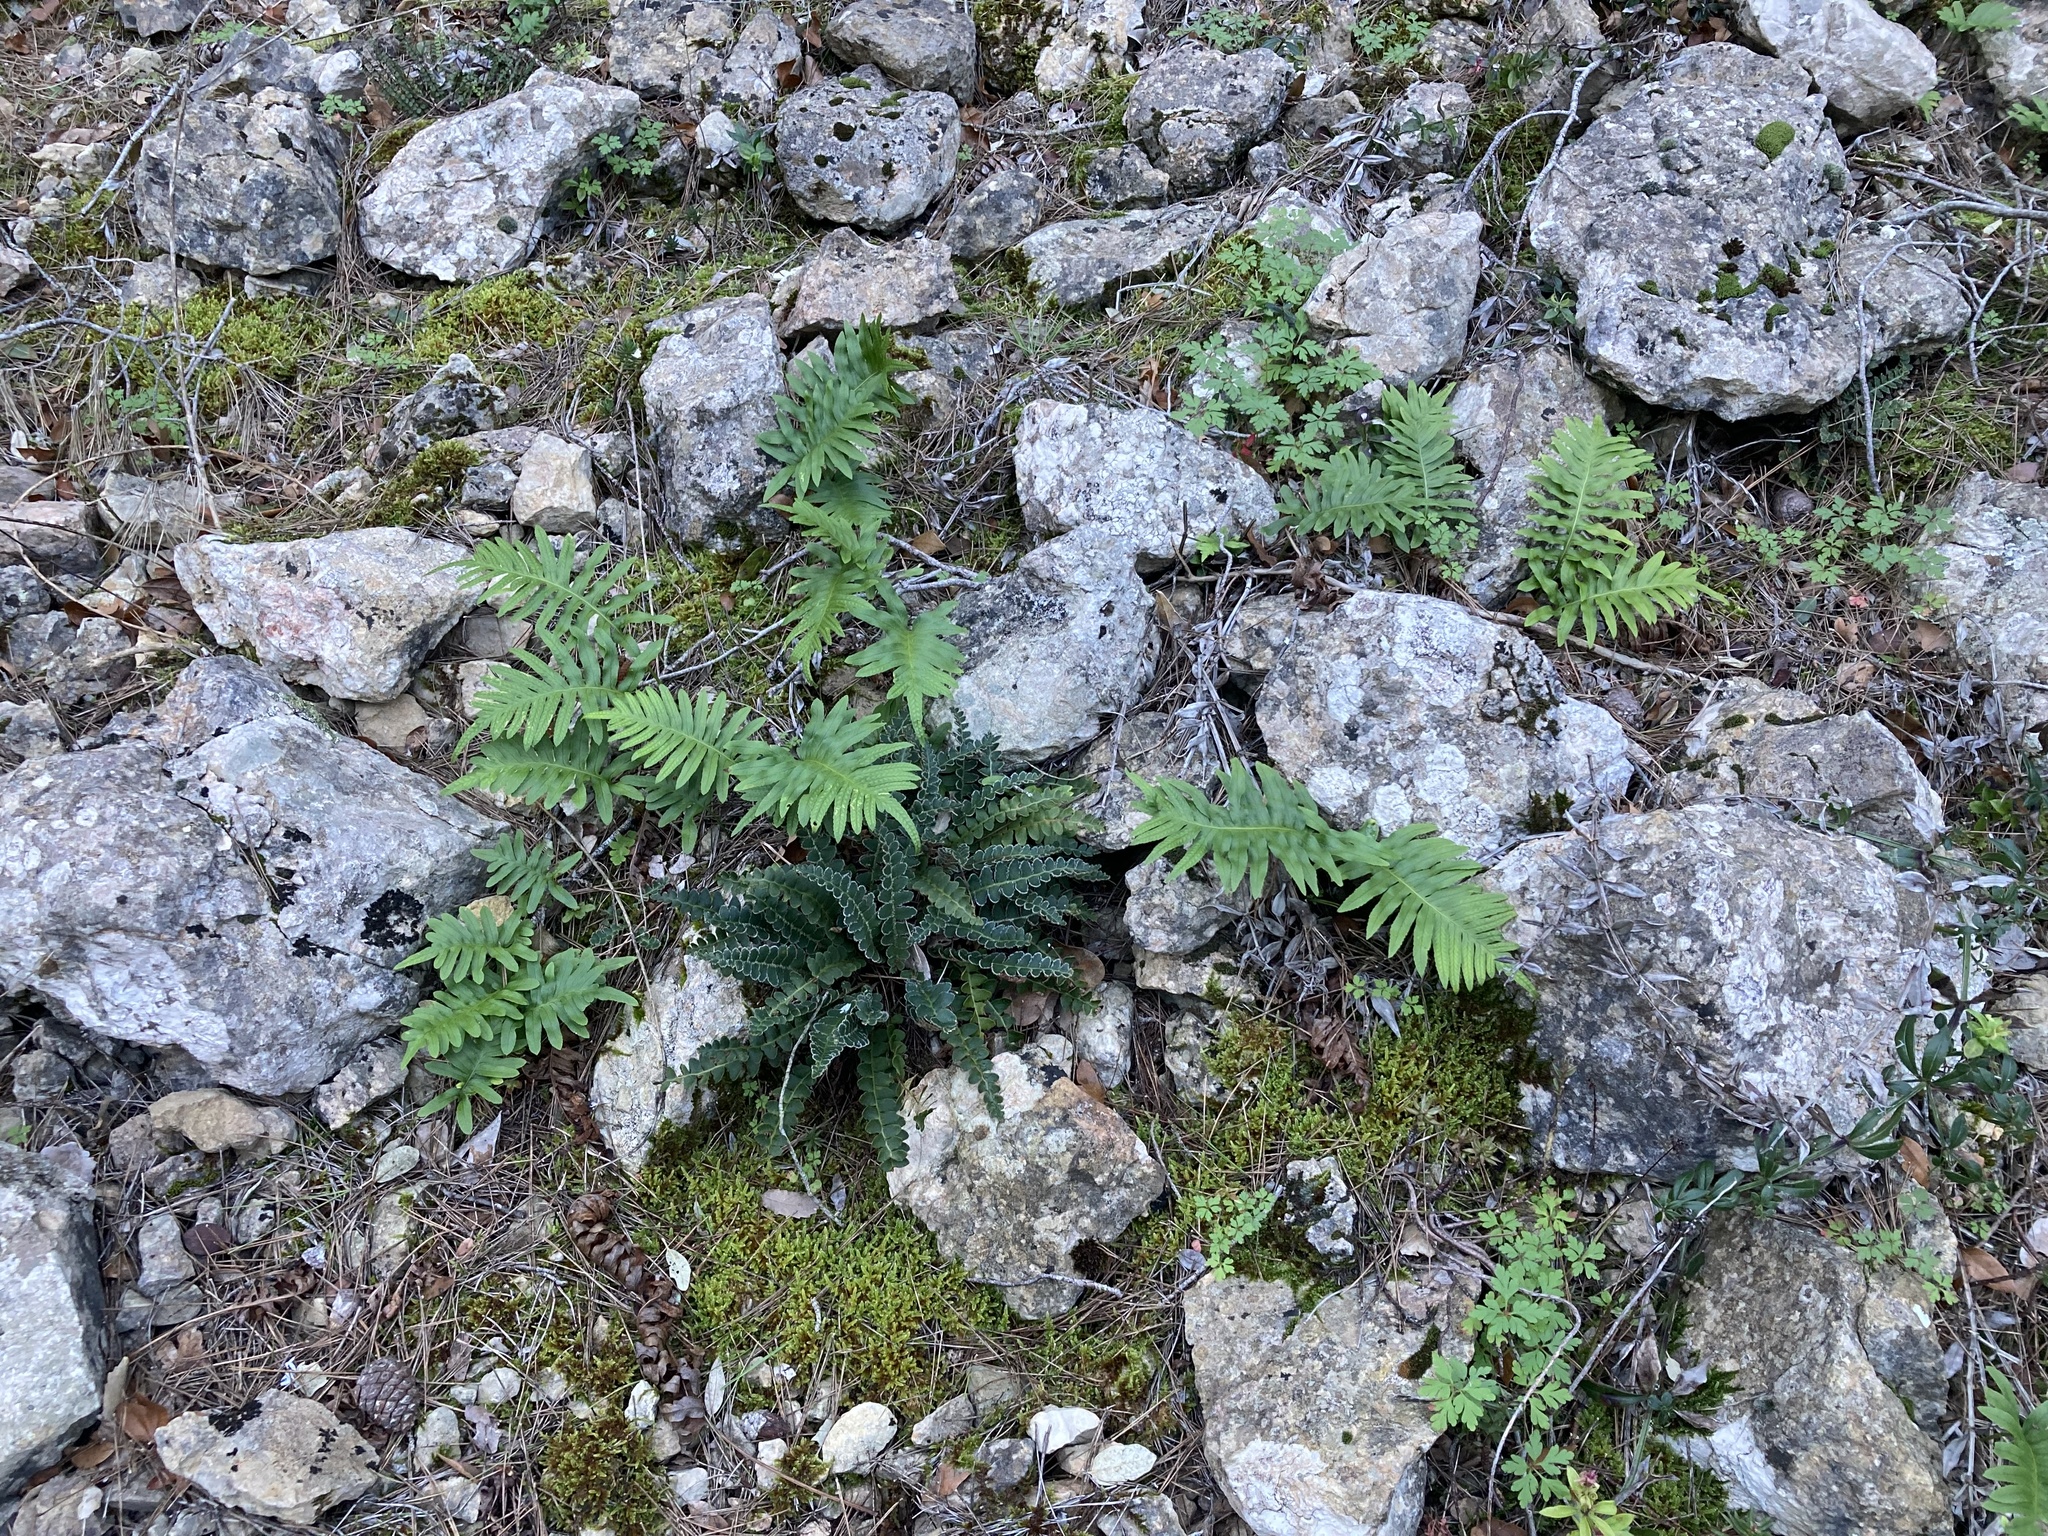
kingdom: Plantae
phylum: Tracheophyta
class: Polypodiopsida
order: Polypodiales
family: Polypodiaceae
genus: Polypodium
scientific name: Polypodium cambricum
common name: Southern polypody
